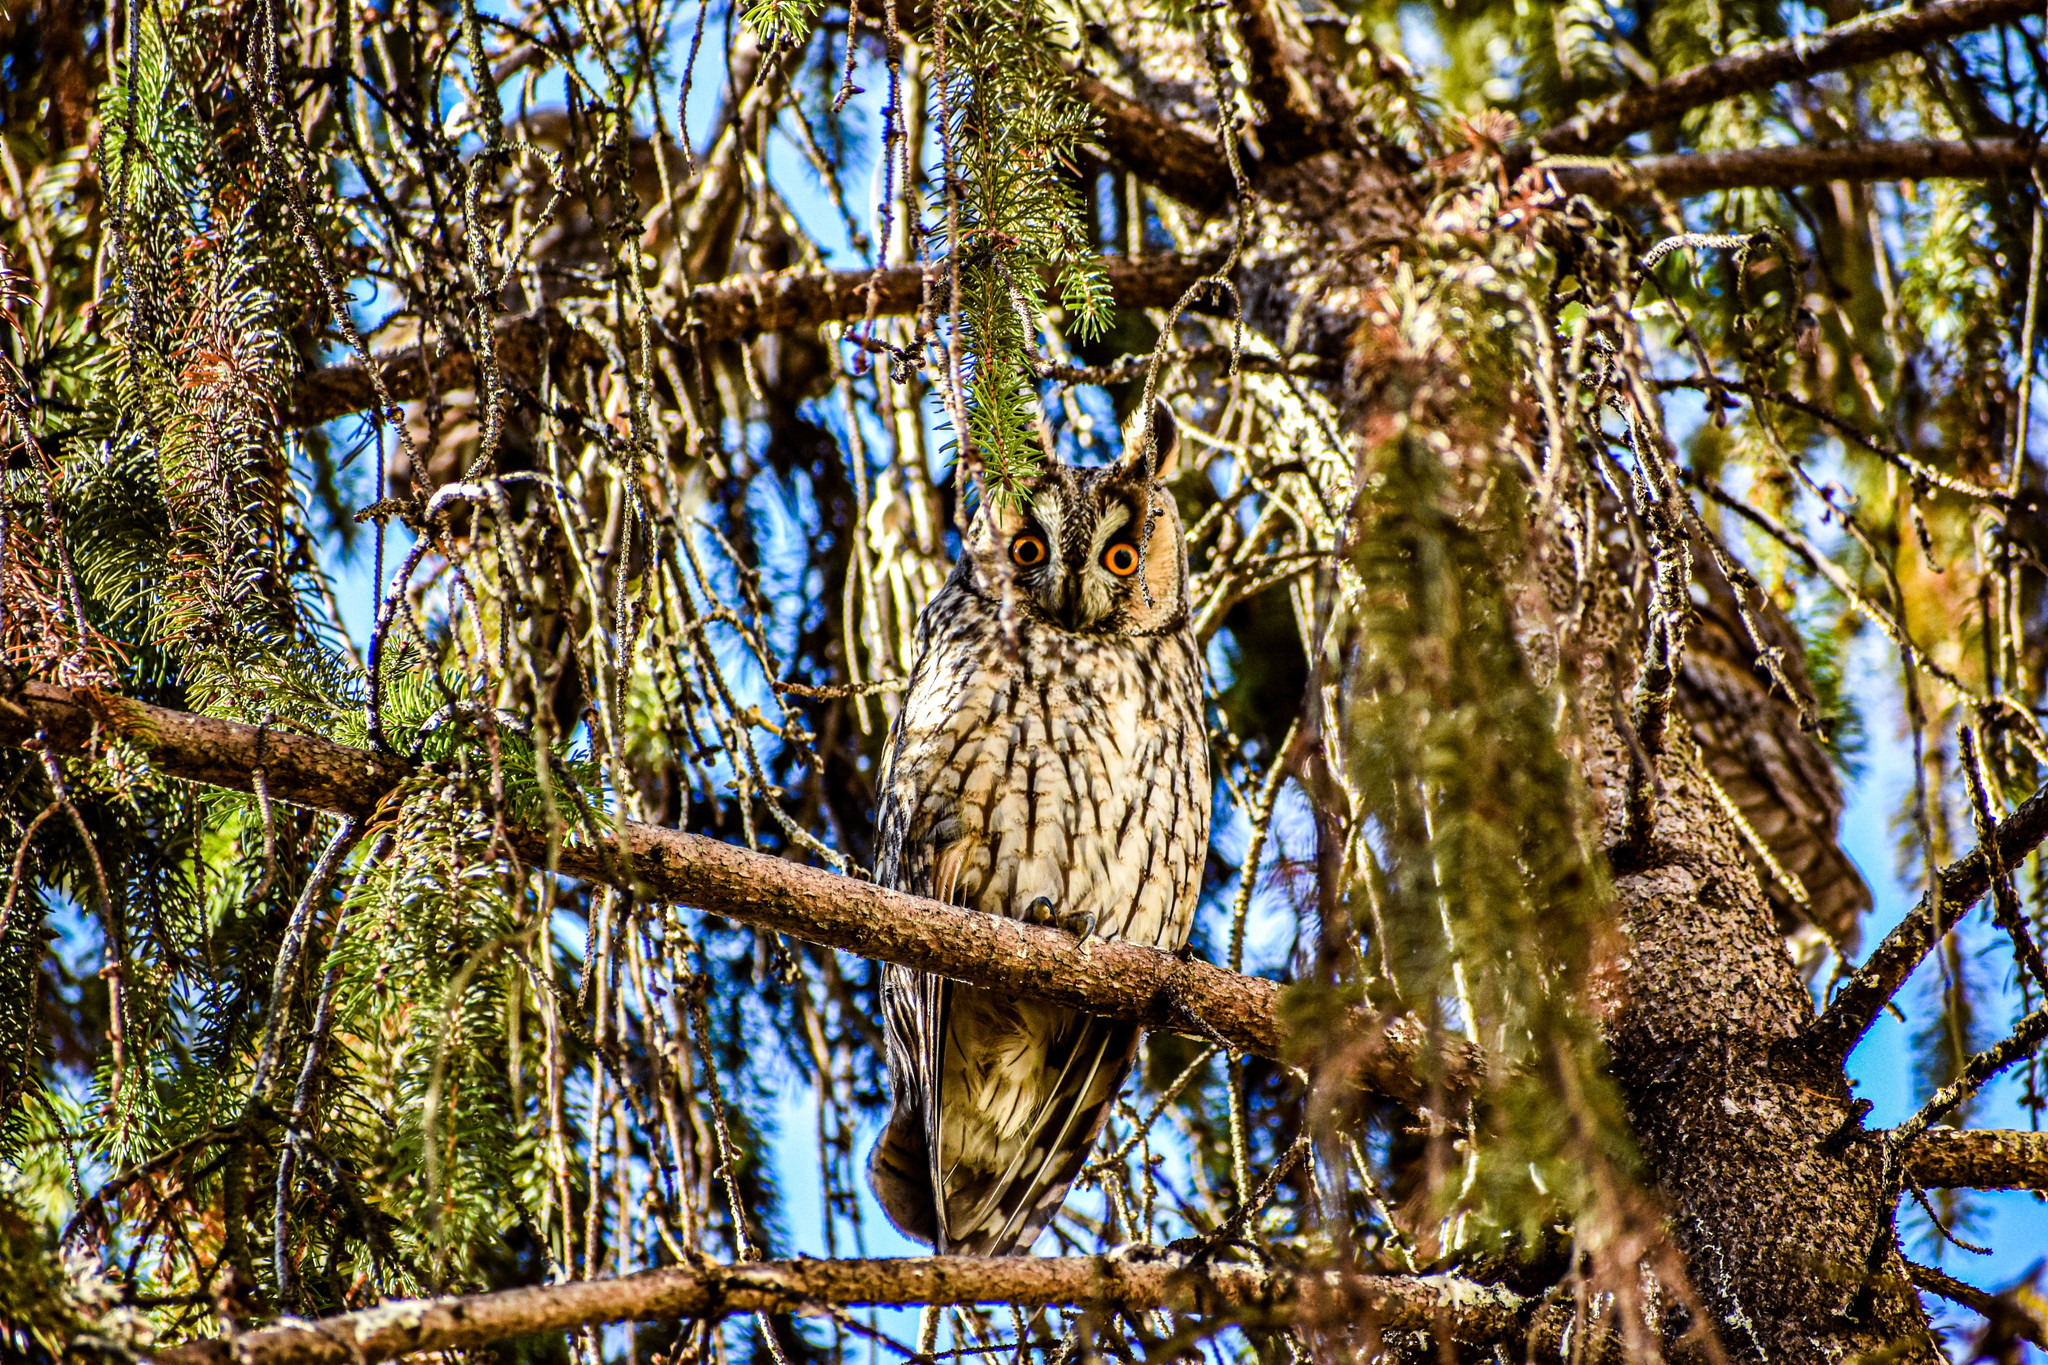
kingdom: Animalia
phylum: Chordata
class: Aves
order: Strigiformes
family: Strigidae
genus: Asio
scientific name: Asio otus
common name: Long-eared owl
